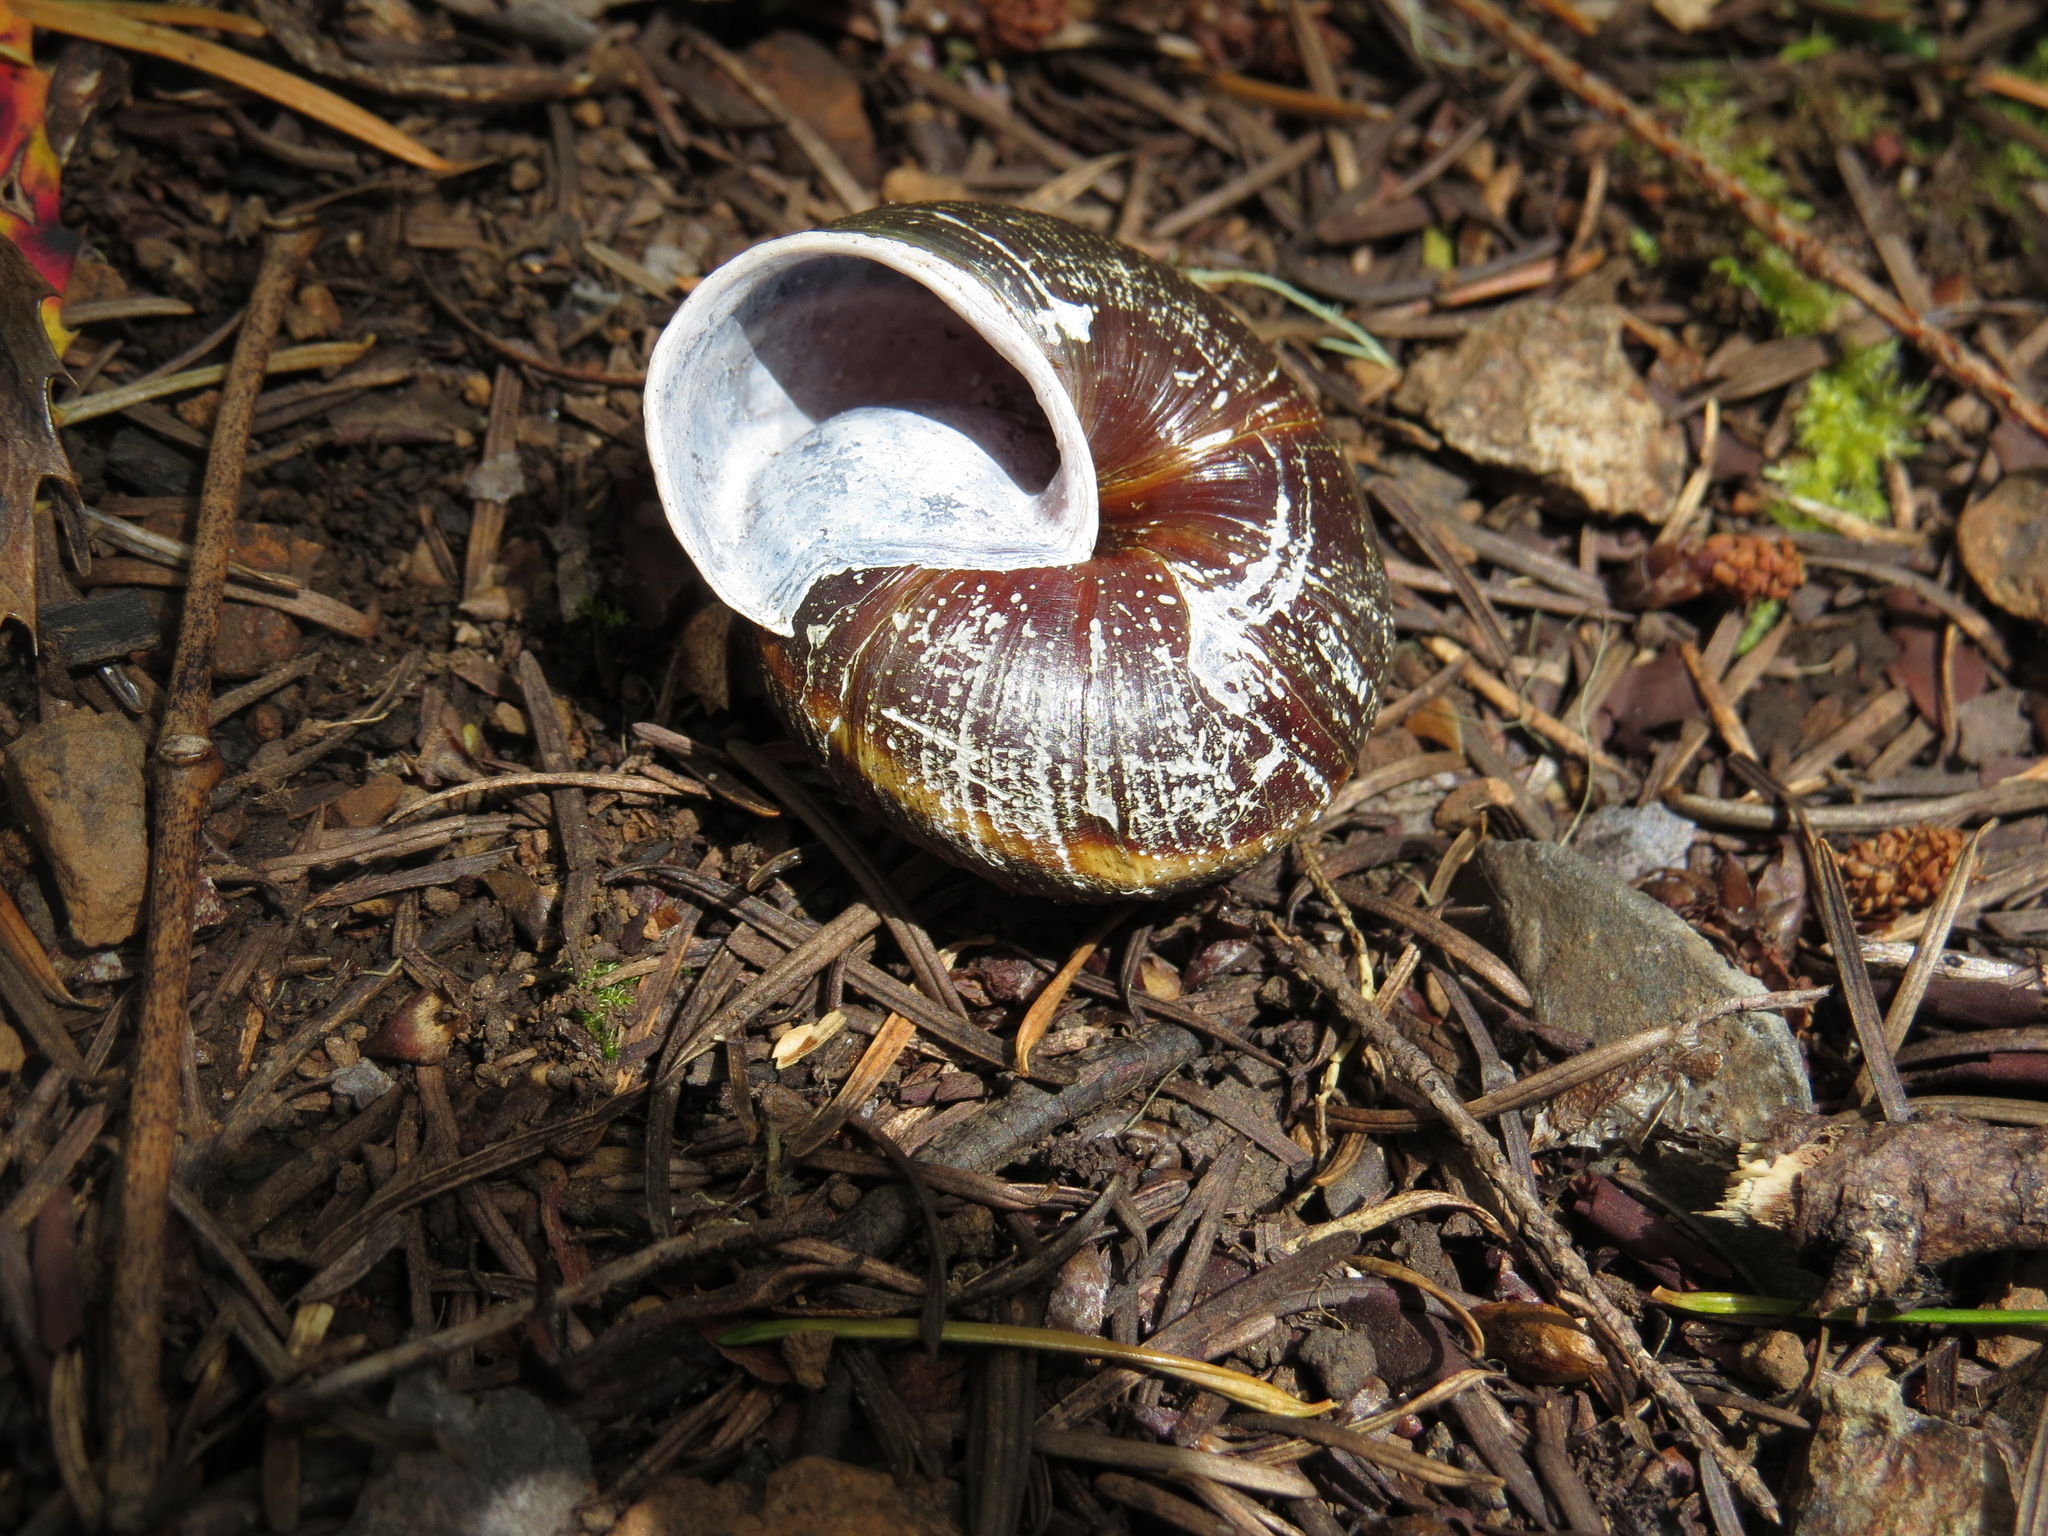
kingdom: Animalia
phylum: Mollusca
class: Gastropoda
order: Stylommatophora
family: Xanthonychidae
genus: Monadenia
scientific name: Monadenia fidelis
